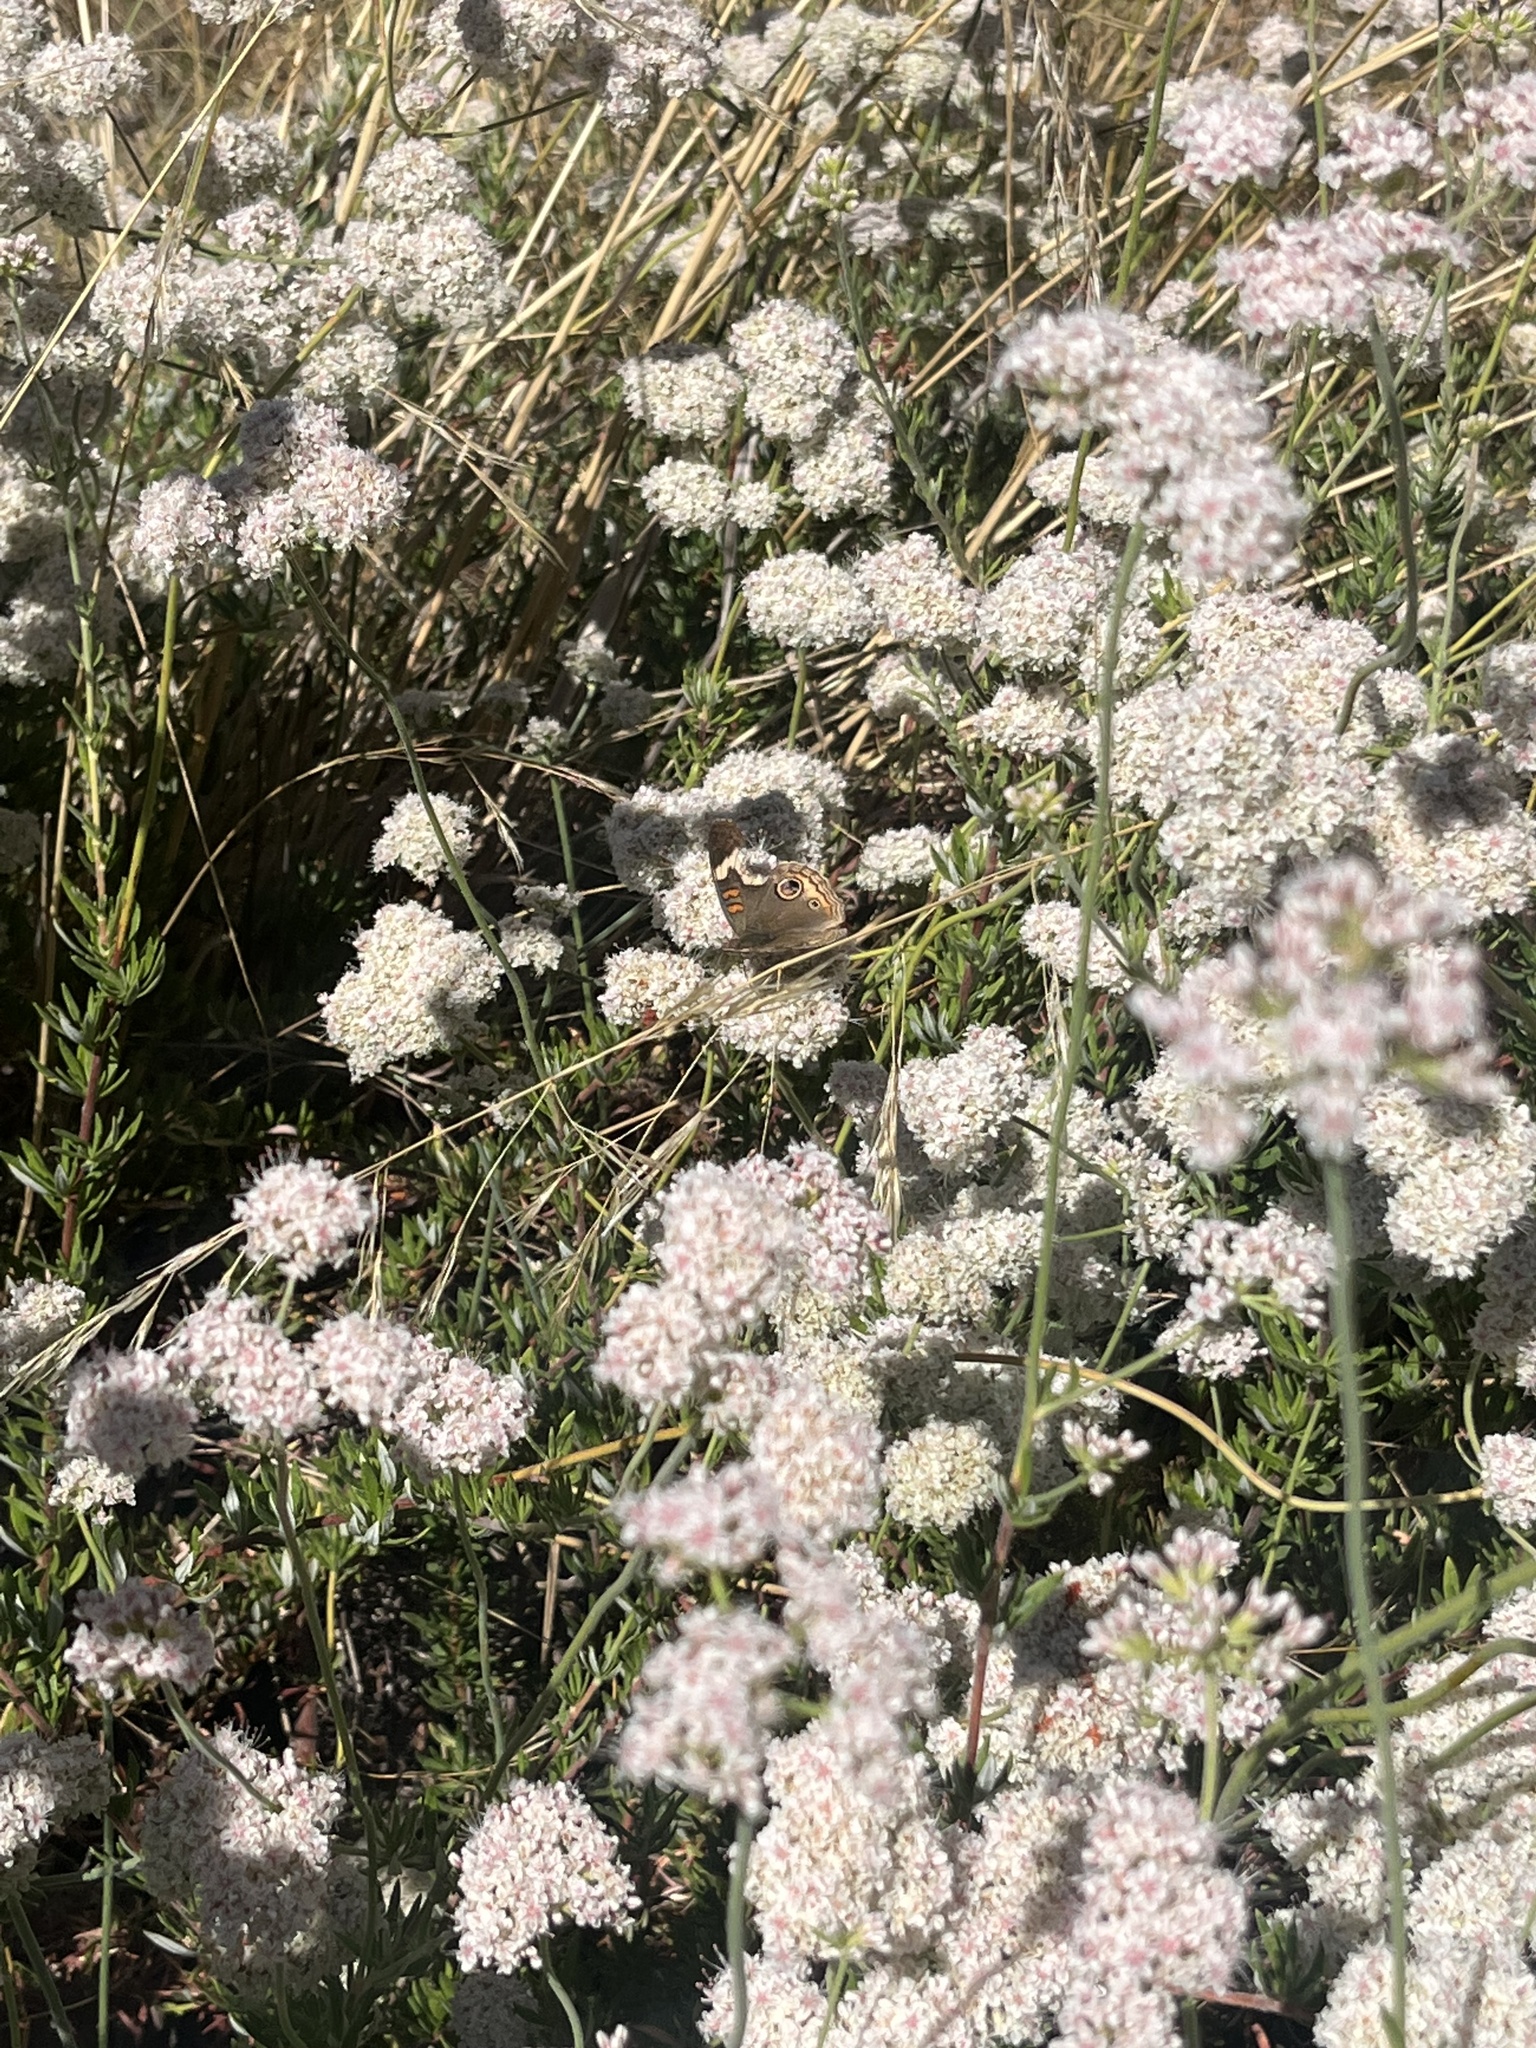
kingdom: Animalia
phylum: Arthropoda
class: Insecta
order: Lepidoptera
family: Nymphalidae
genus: Junonia
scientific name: Junonia grisea
